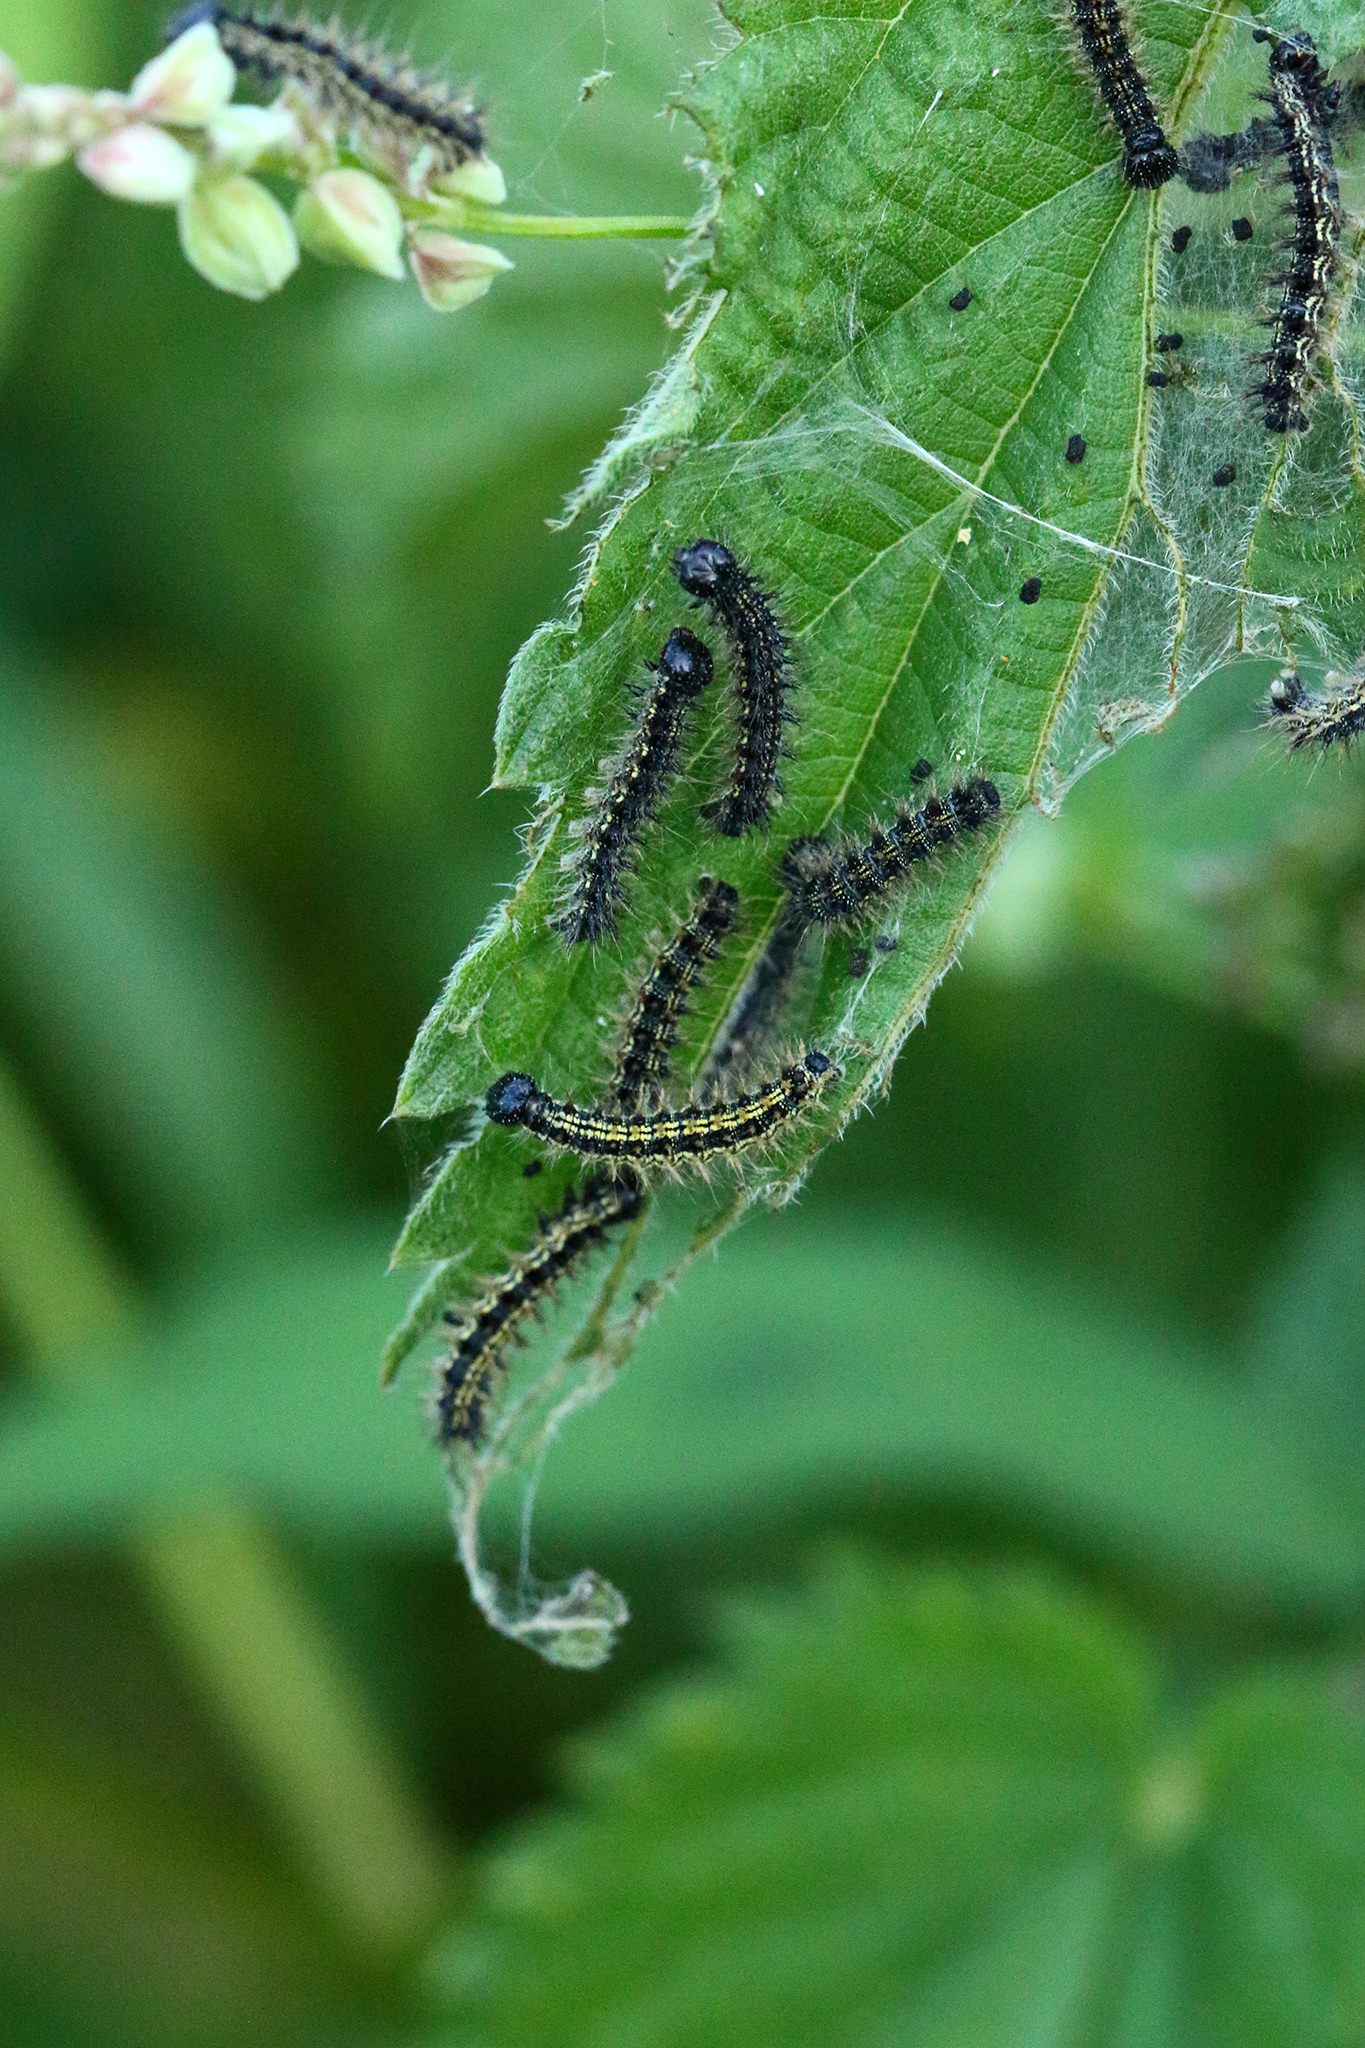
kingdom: Animalia
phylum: Arthropoda
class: Insecta
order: Lepidoptera
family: Nymphalidae
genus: Aglais
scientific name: Aglais urticae
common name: Small tortoiseshell
